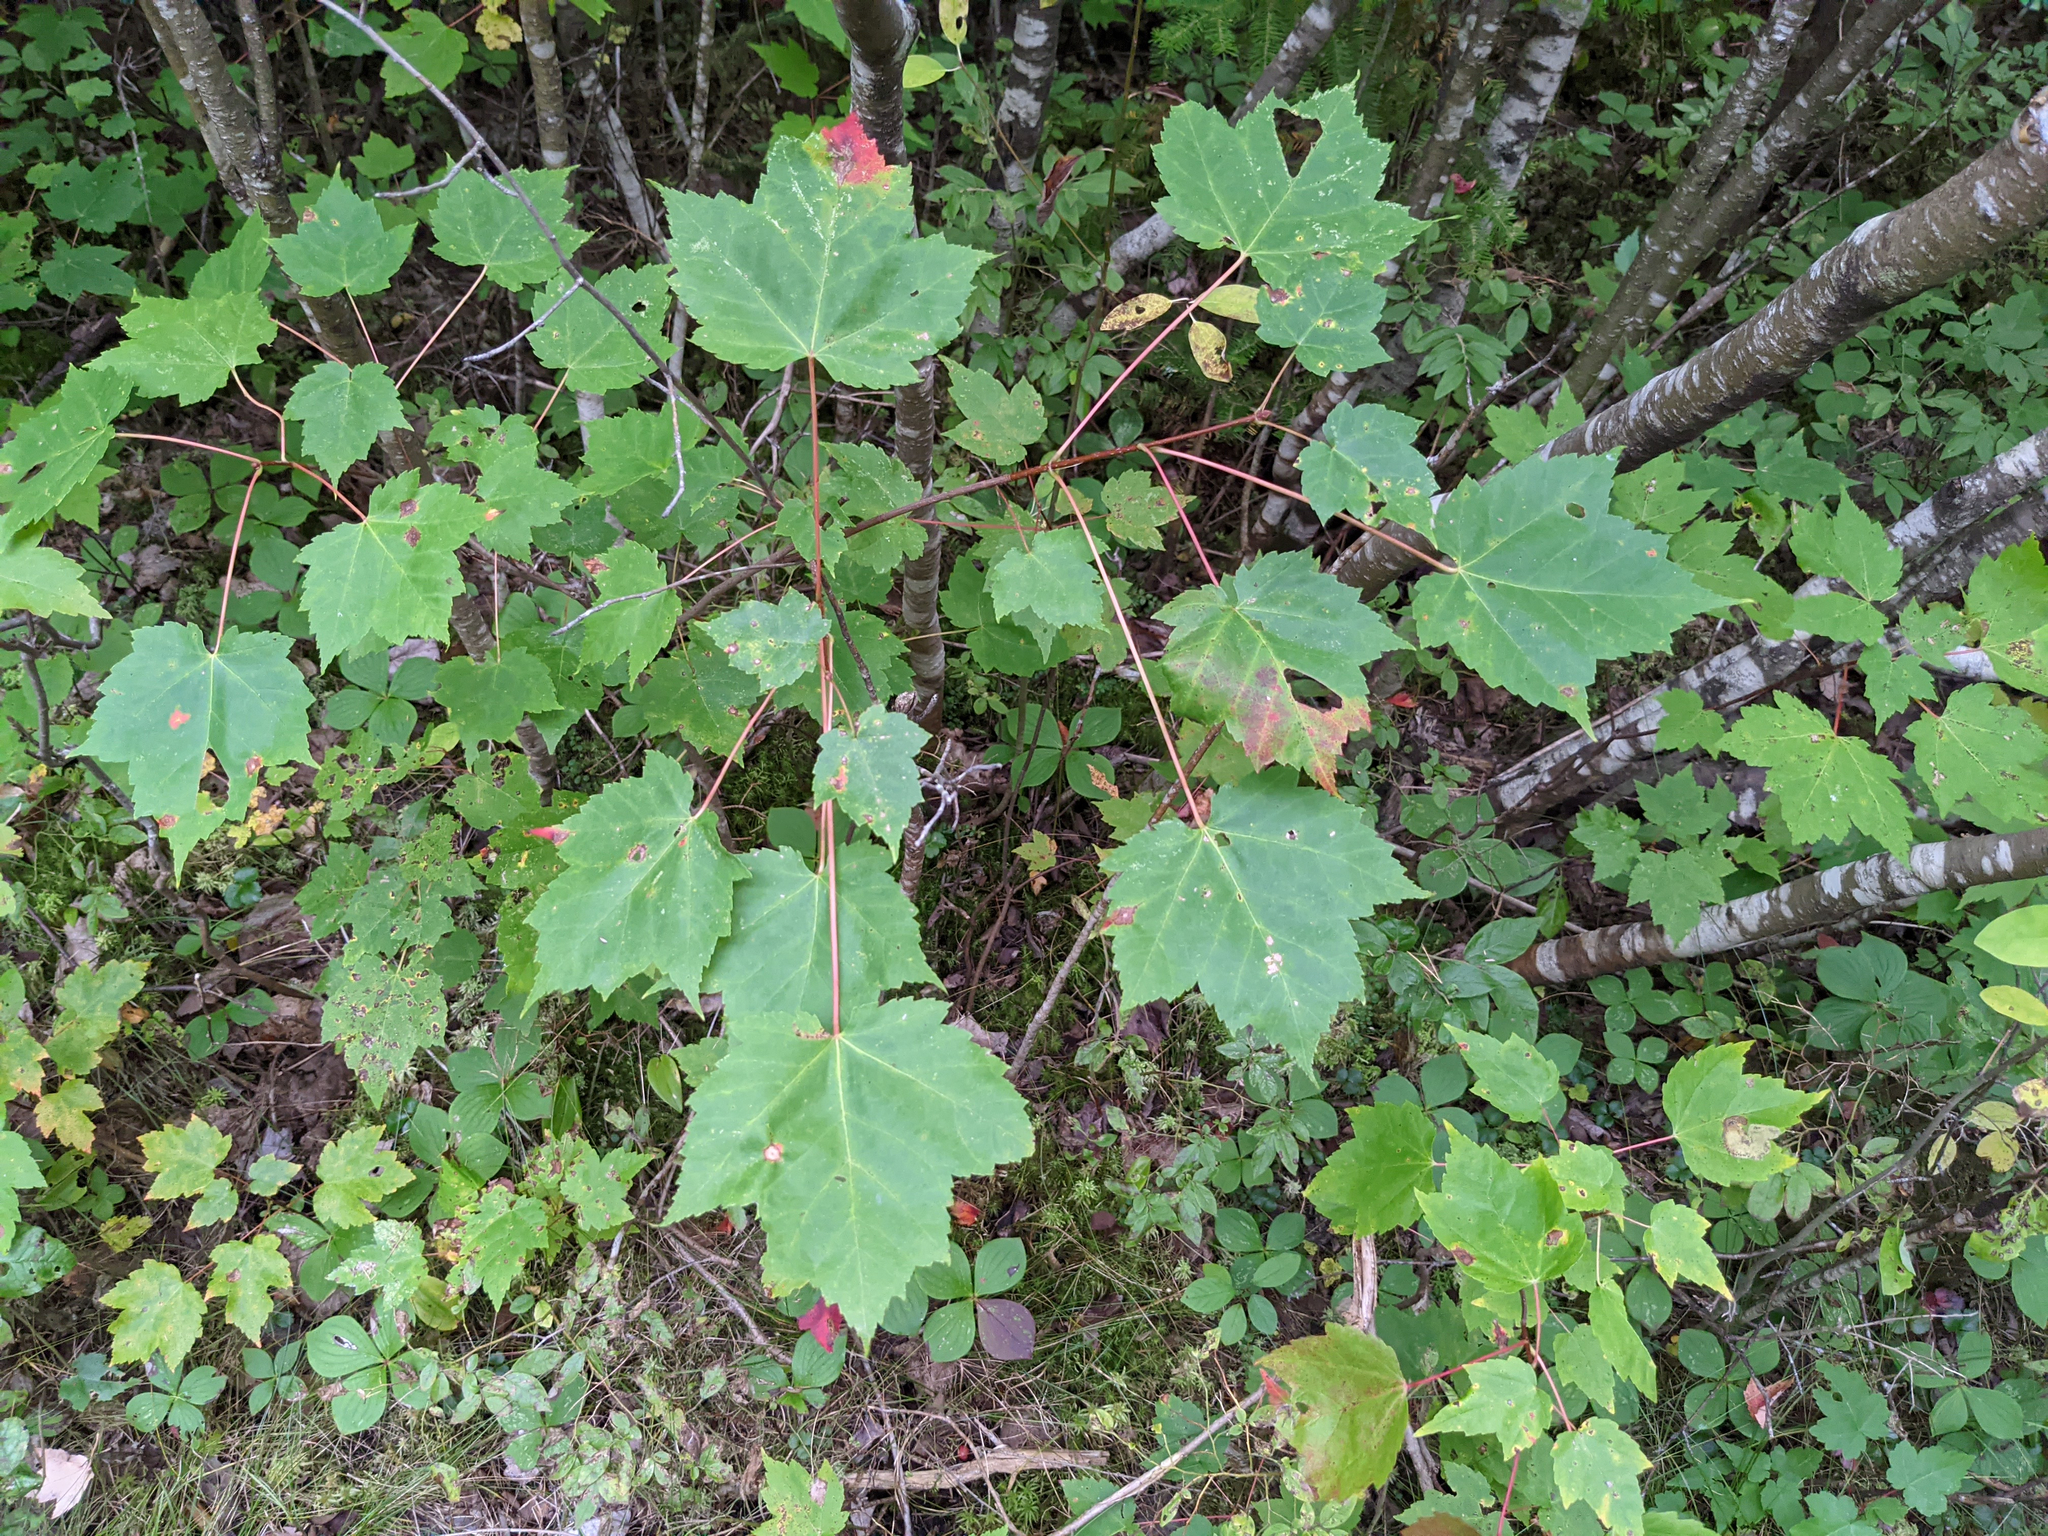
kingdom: Plantae
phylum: Tracheophyta
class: Magnoliopsida
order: Sapindales
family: Sapindaceae
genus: Acer
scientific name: Acer rubrum
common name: Red maple
